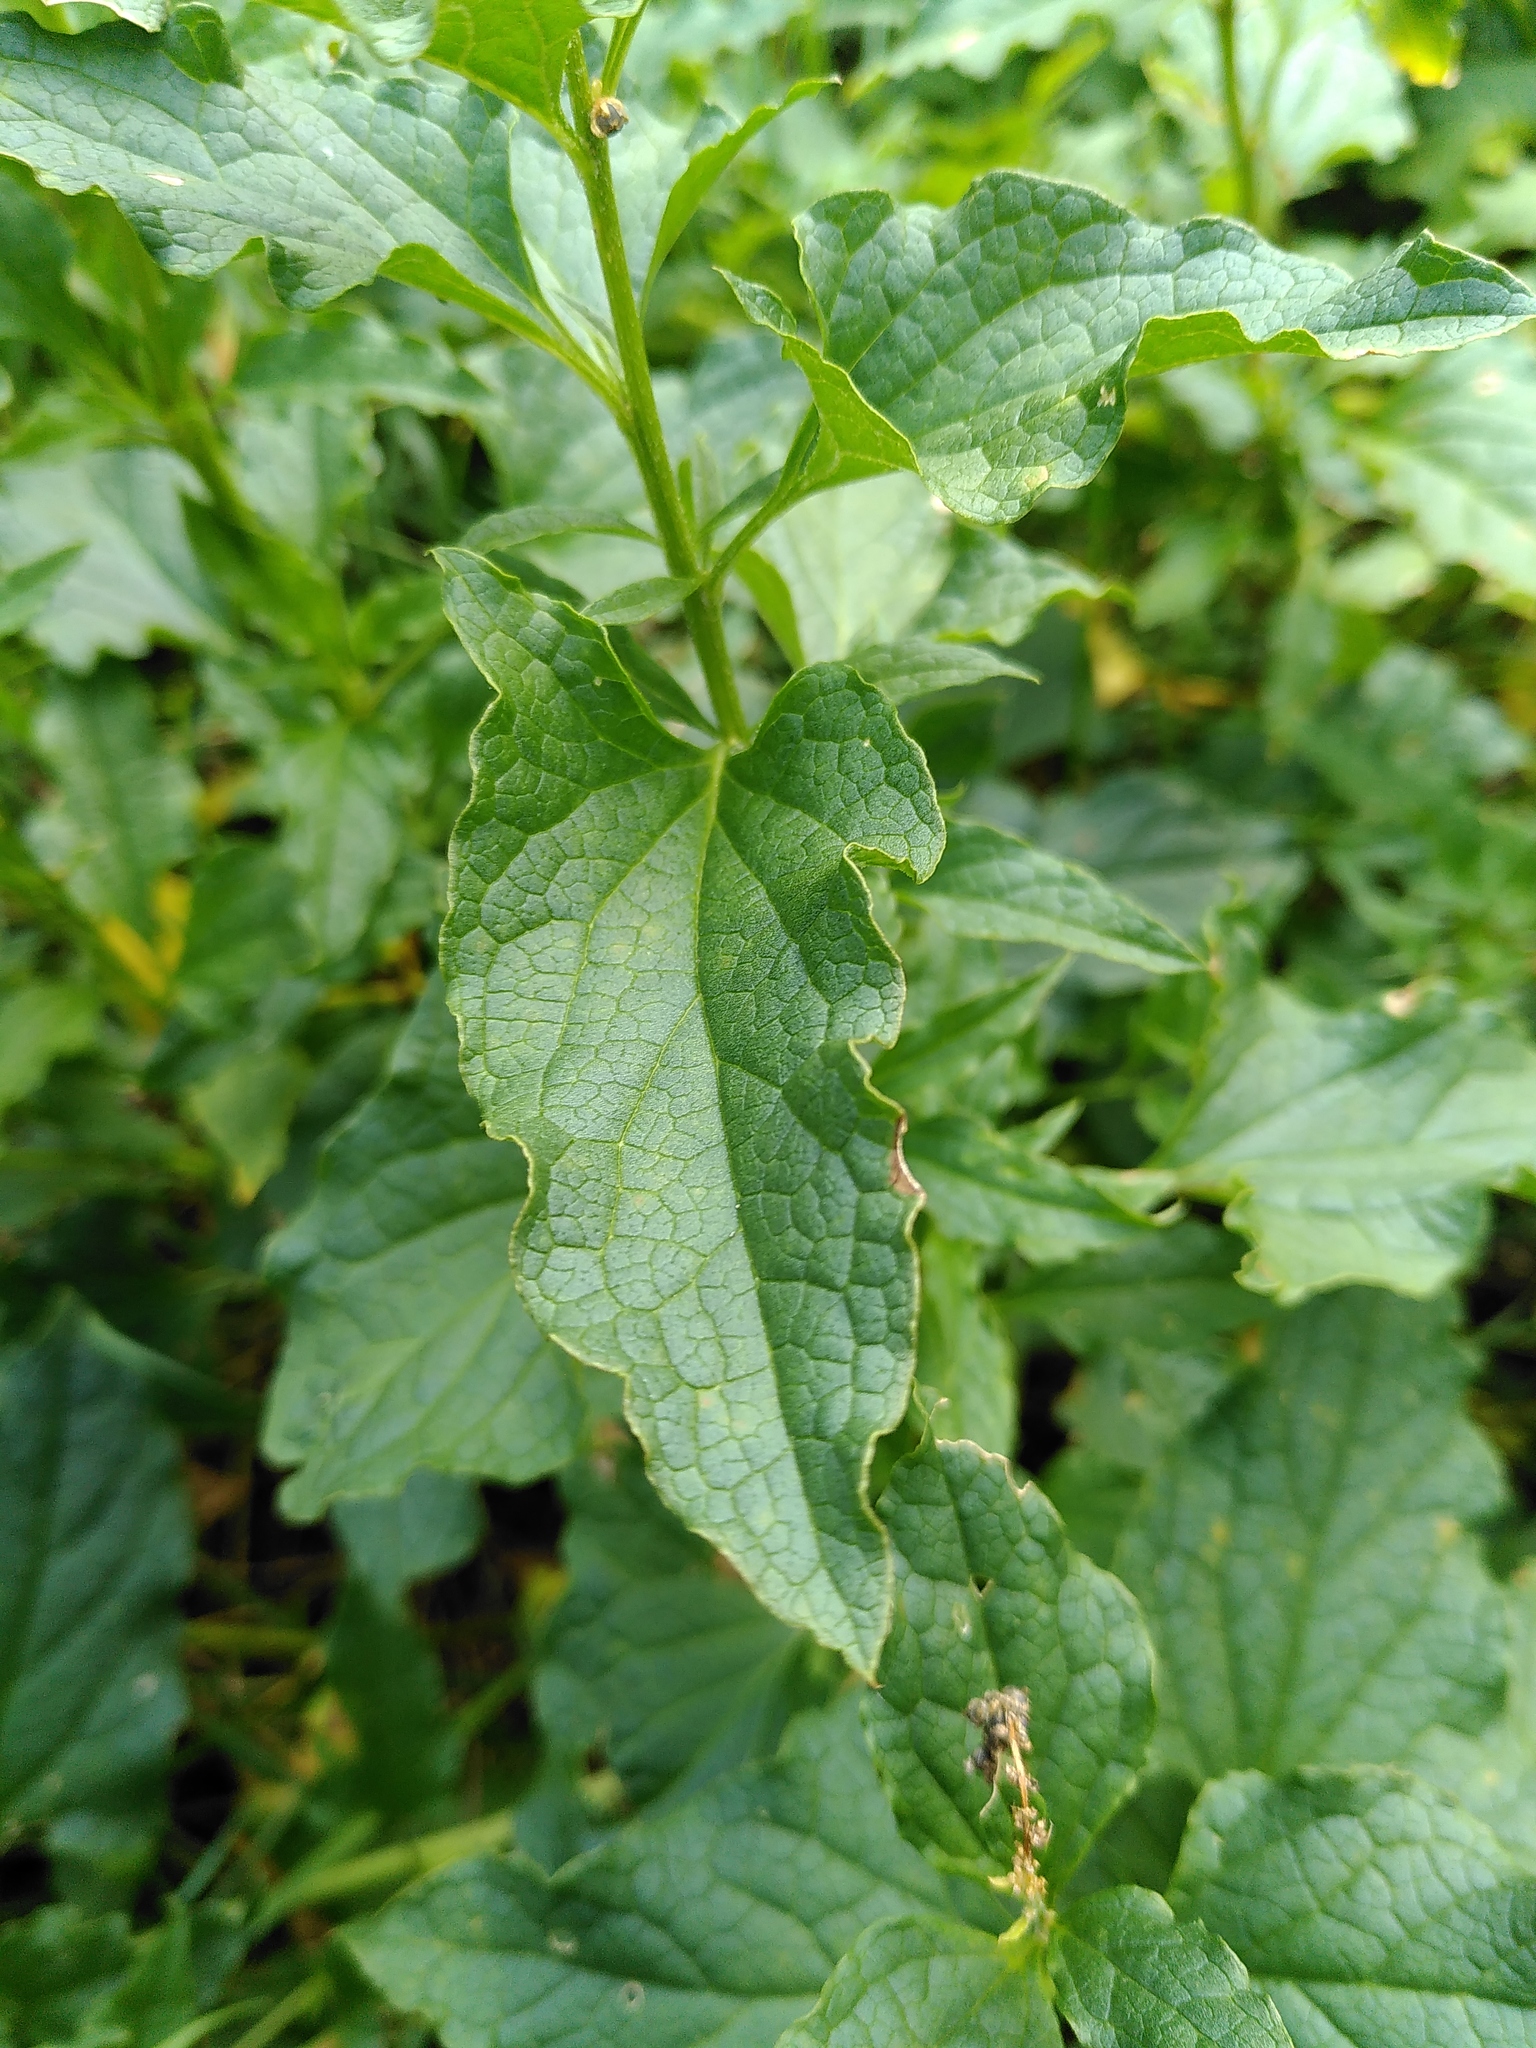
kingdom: Plantae
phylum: Tracheophyta
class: Magnoliopsida
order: Caryophyllales
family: Amaranthaceae
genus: Blitum
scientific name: Blitum bonus-henricus
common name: Good king henry
